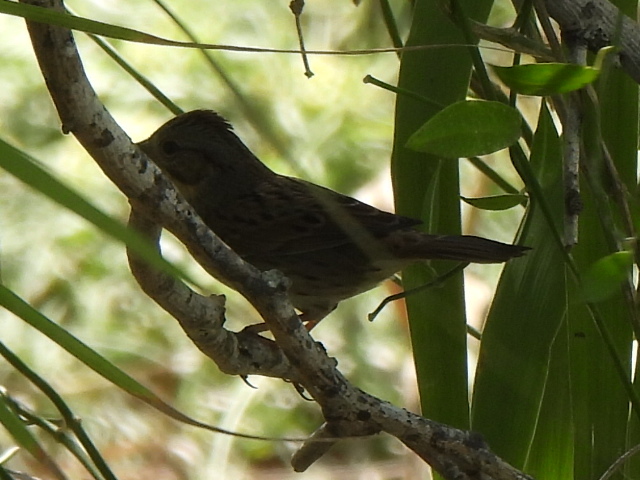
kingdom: Animalia
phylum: Chordata
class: Aves
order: Passeriformes
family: Passerellidae
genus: Melospiza
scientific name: Melospiza lincolnii
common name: Lincoln's sparrow
